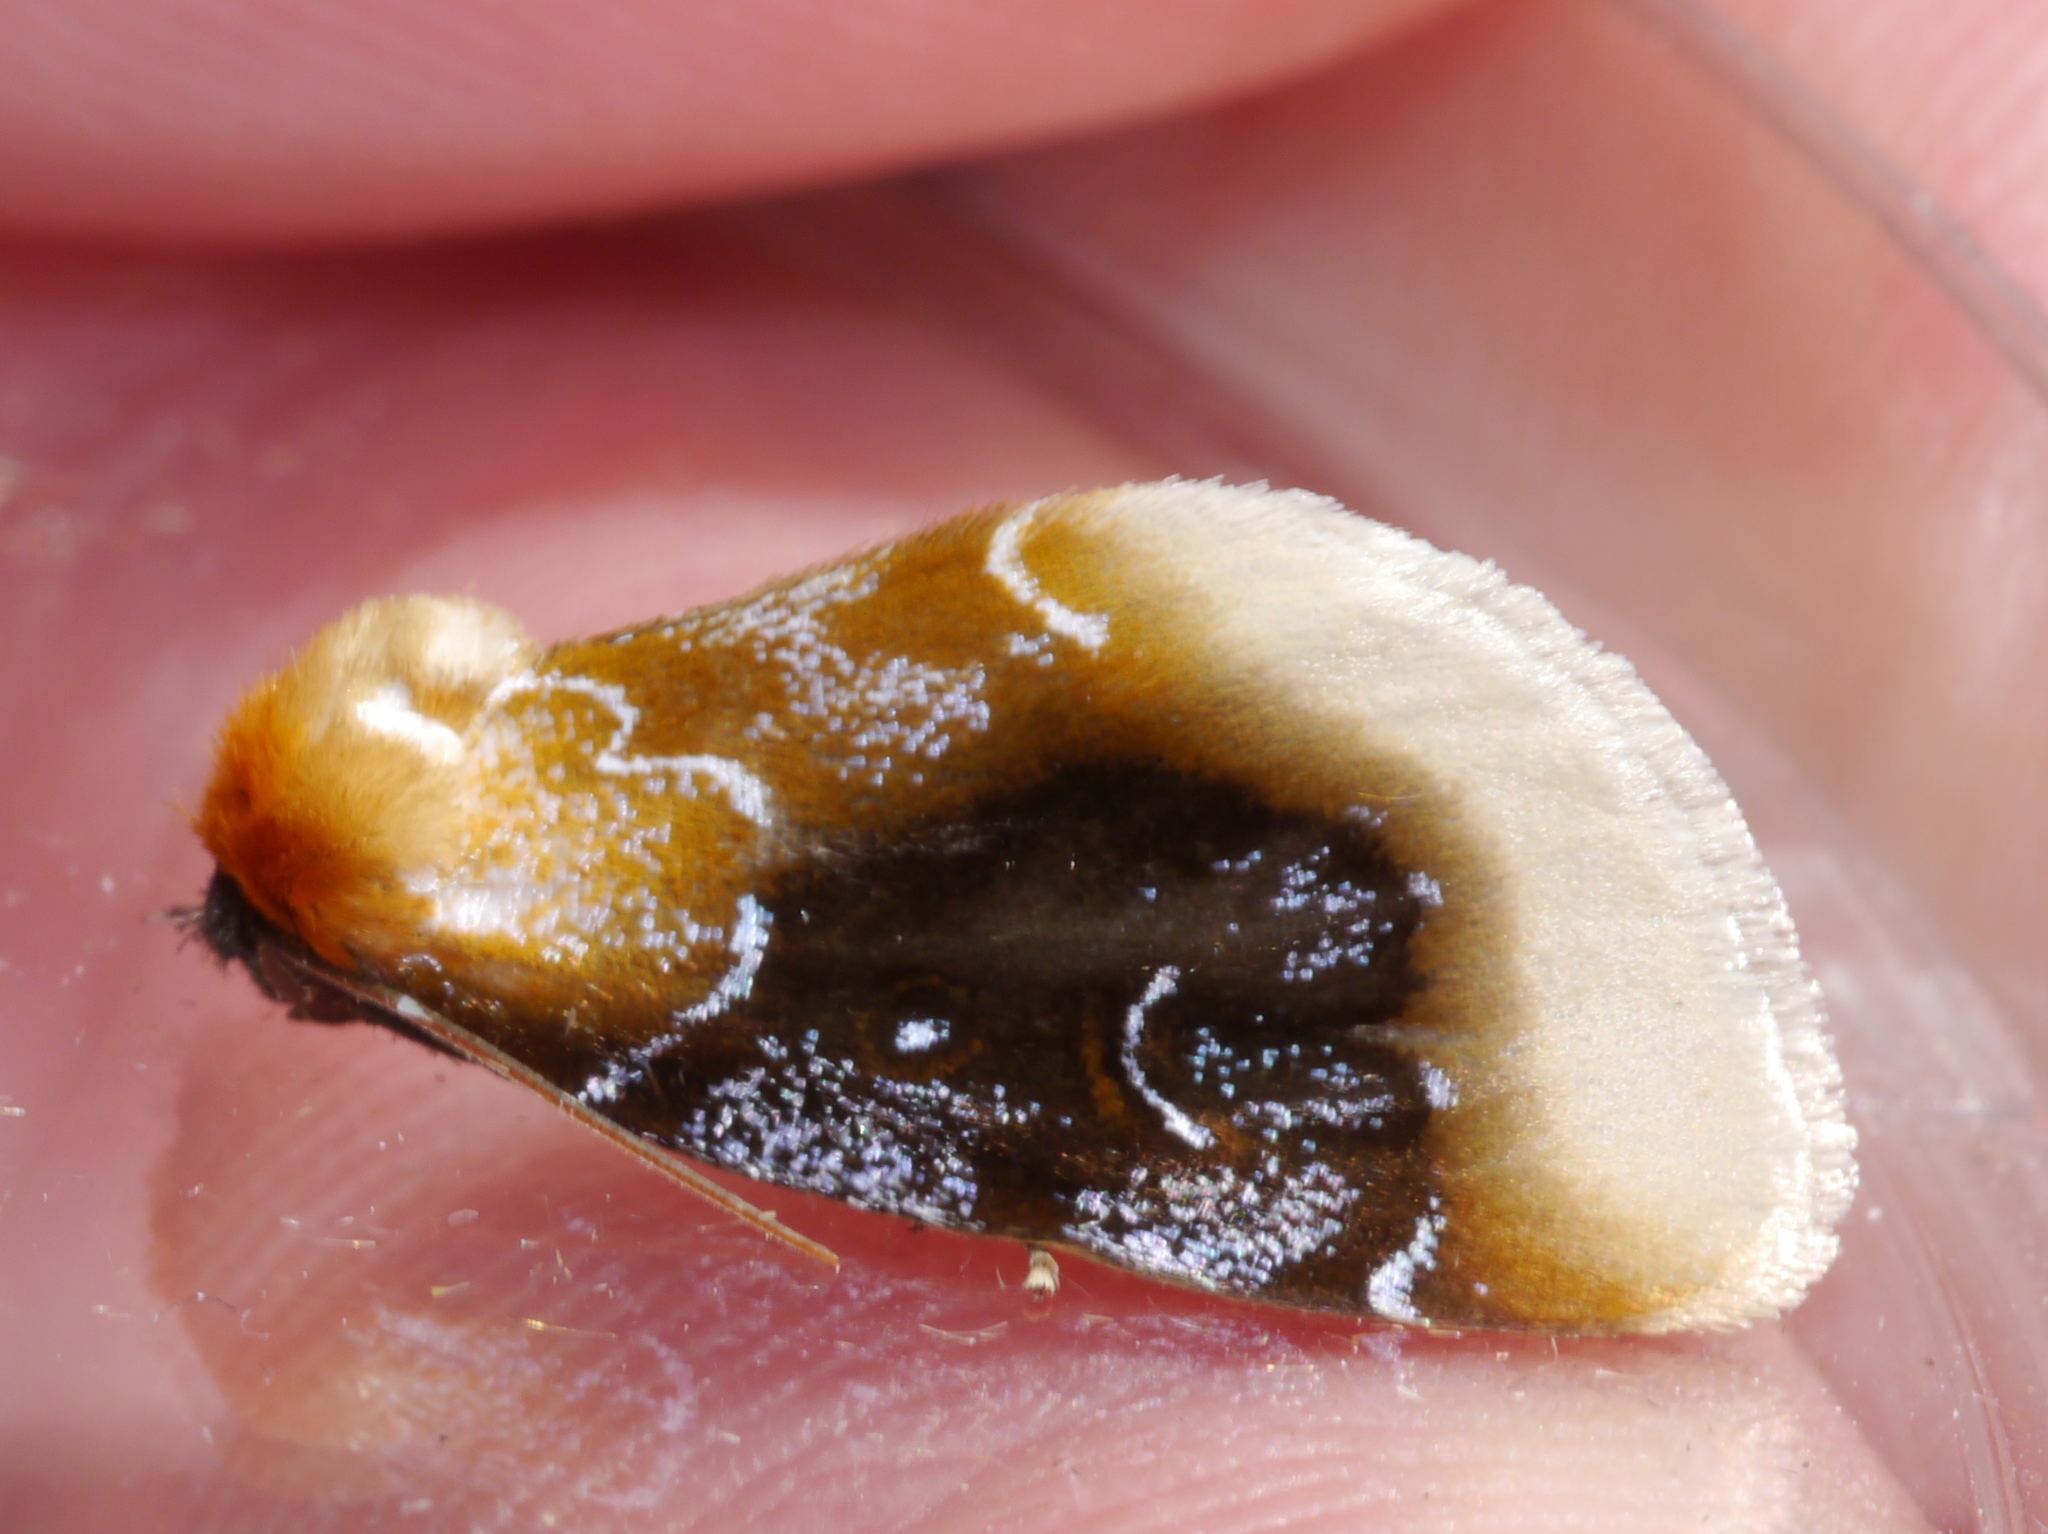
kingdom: Animalia
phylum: Arthropoda
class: Insecta
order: Lepidoptera
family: Noctuidae
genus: Chrysoecia
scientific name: Chrysoecia scira
